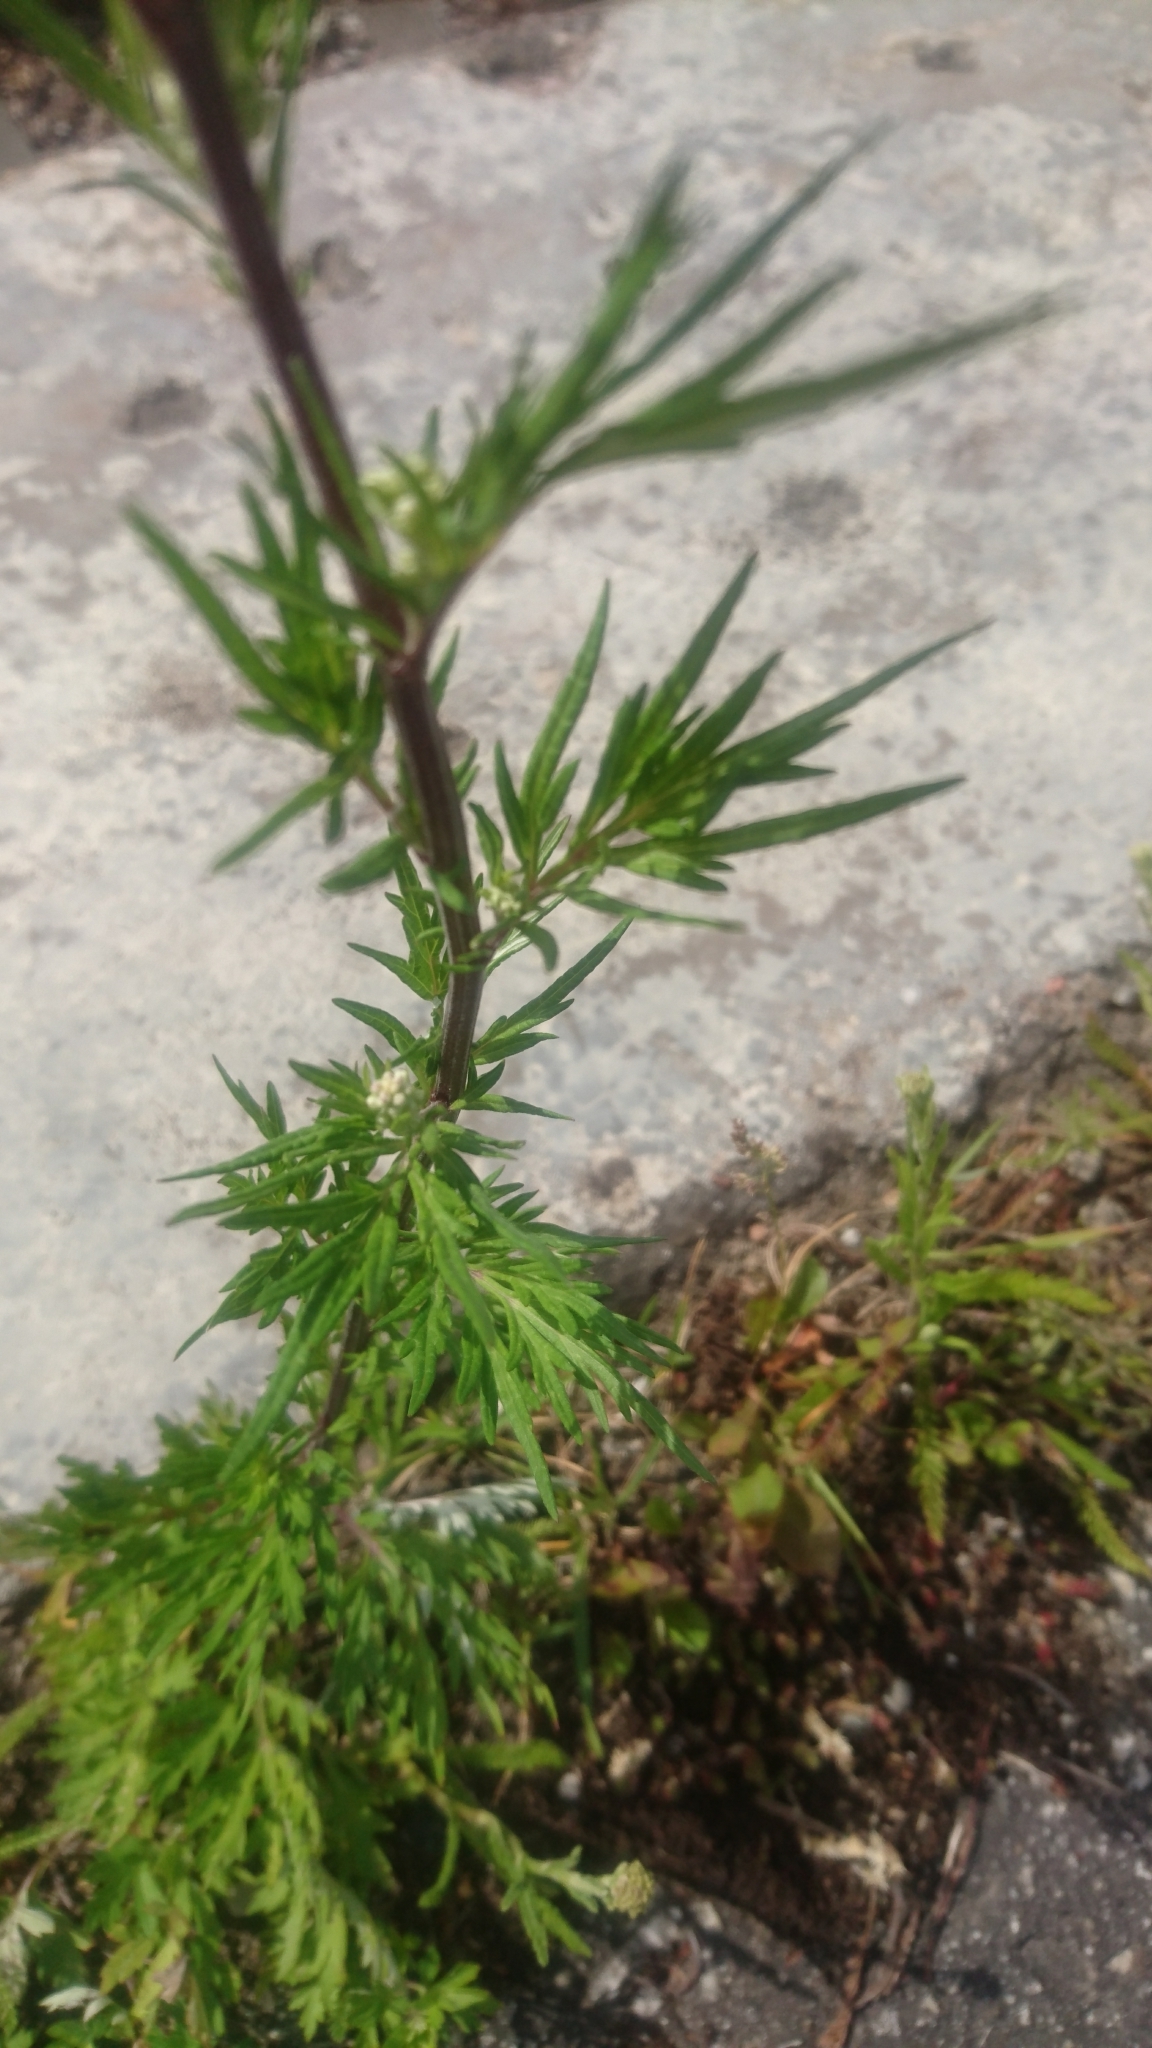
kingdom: Plantae
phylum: Tracheophyta
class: Magnoliopsida
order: Asterales
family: Asteraceae
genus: Artemisia
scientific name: Artemisia vulgaris
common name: Mugwort
